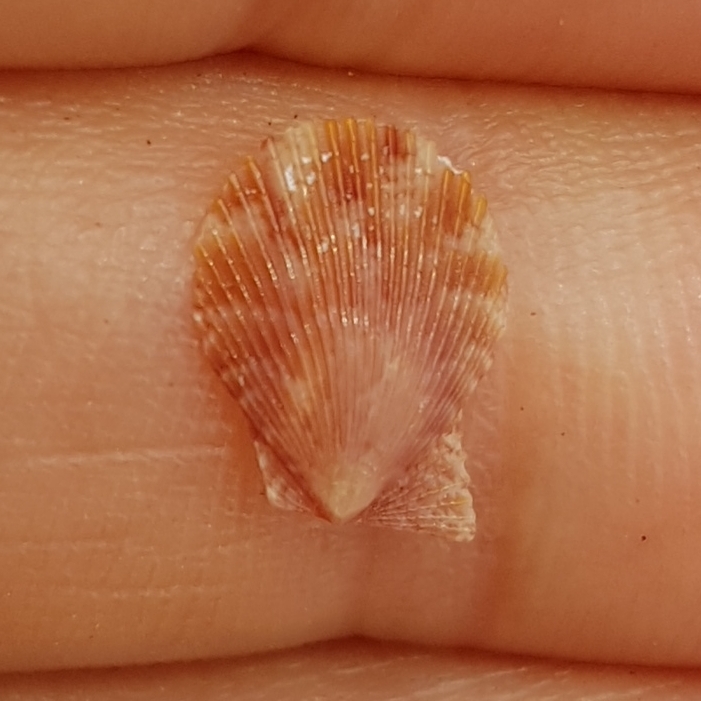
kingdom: Animalia
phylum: Mollusca
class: Bivalvia
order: Pectinida
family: Pectinidae
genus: Mimachlamys
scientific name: Mimachlamys varia
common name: Variegated scallop
